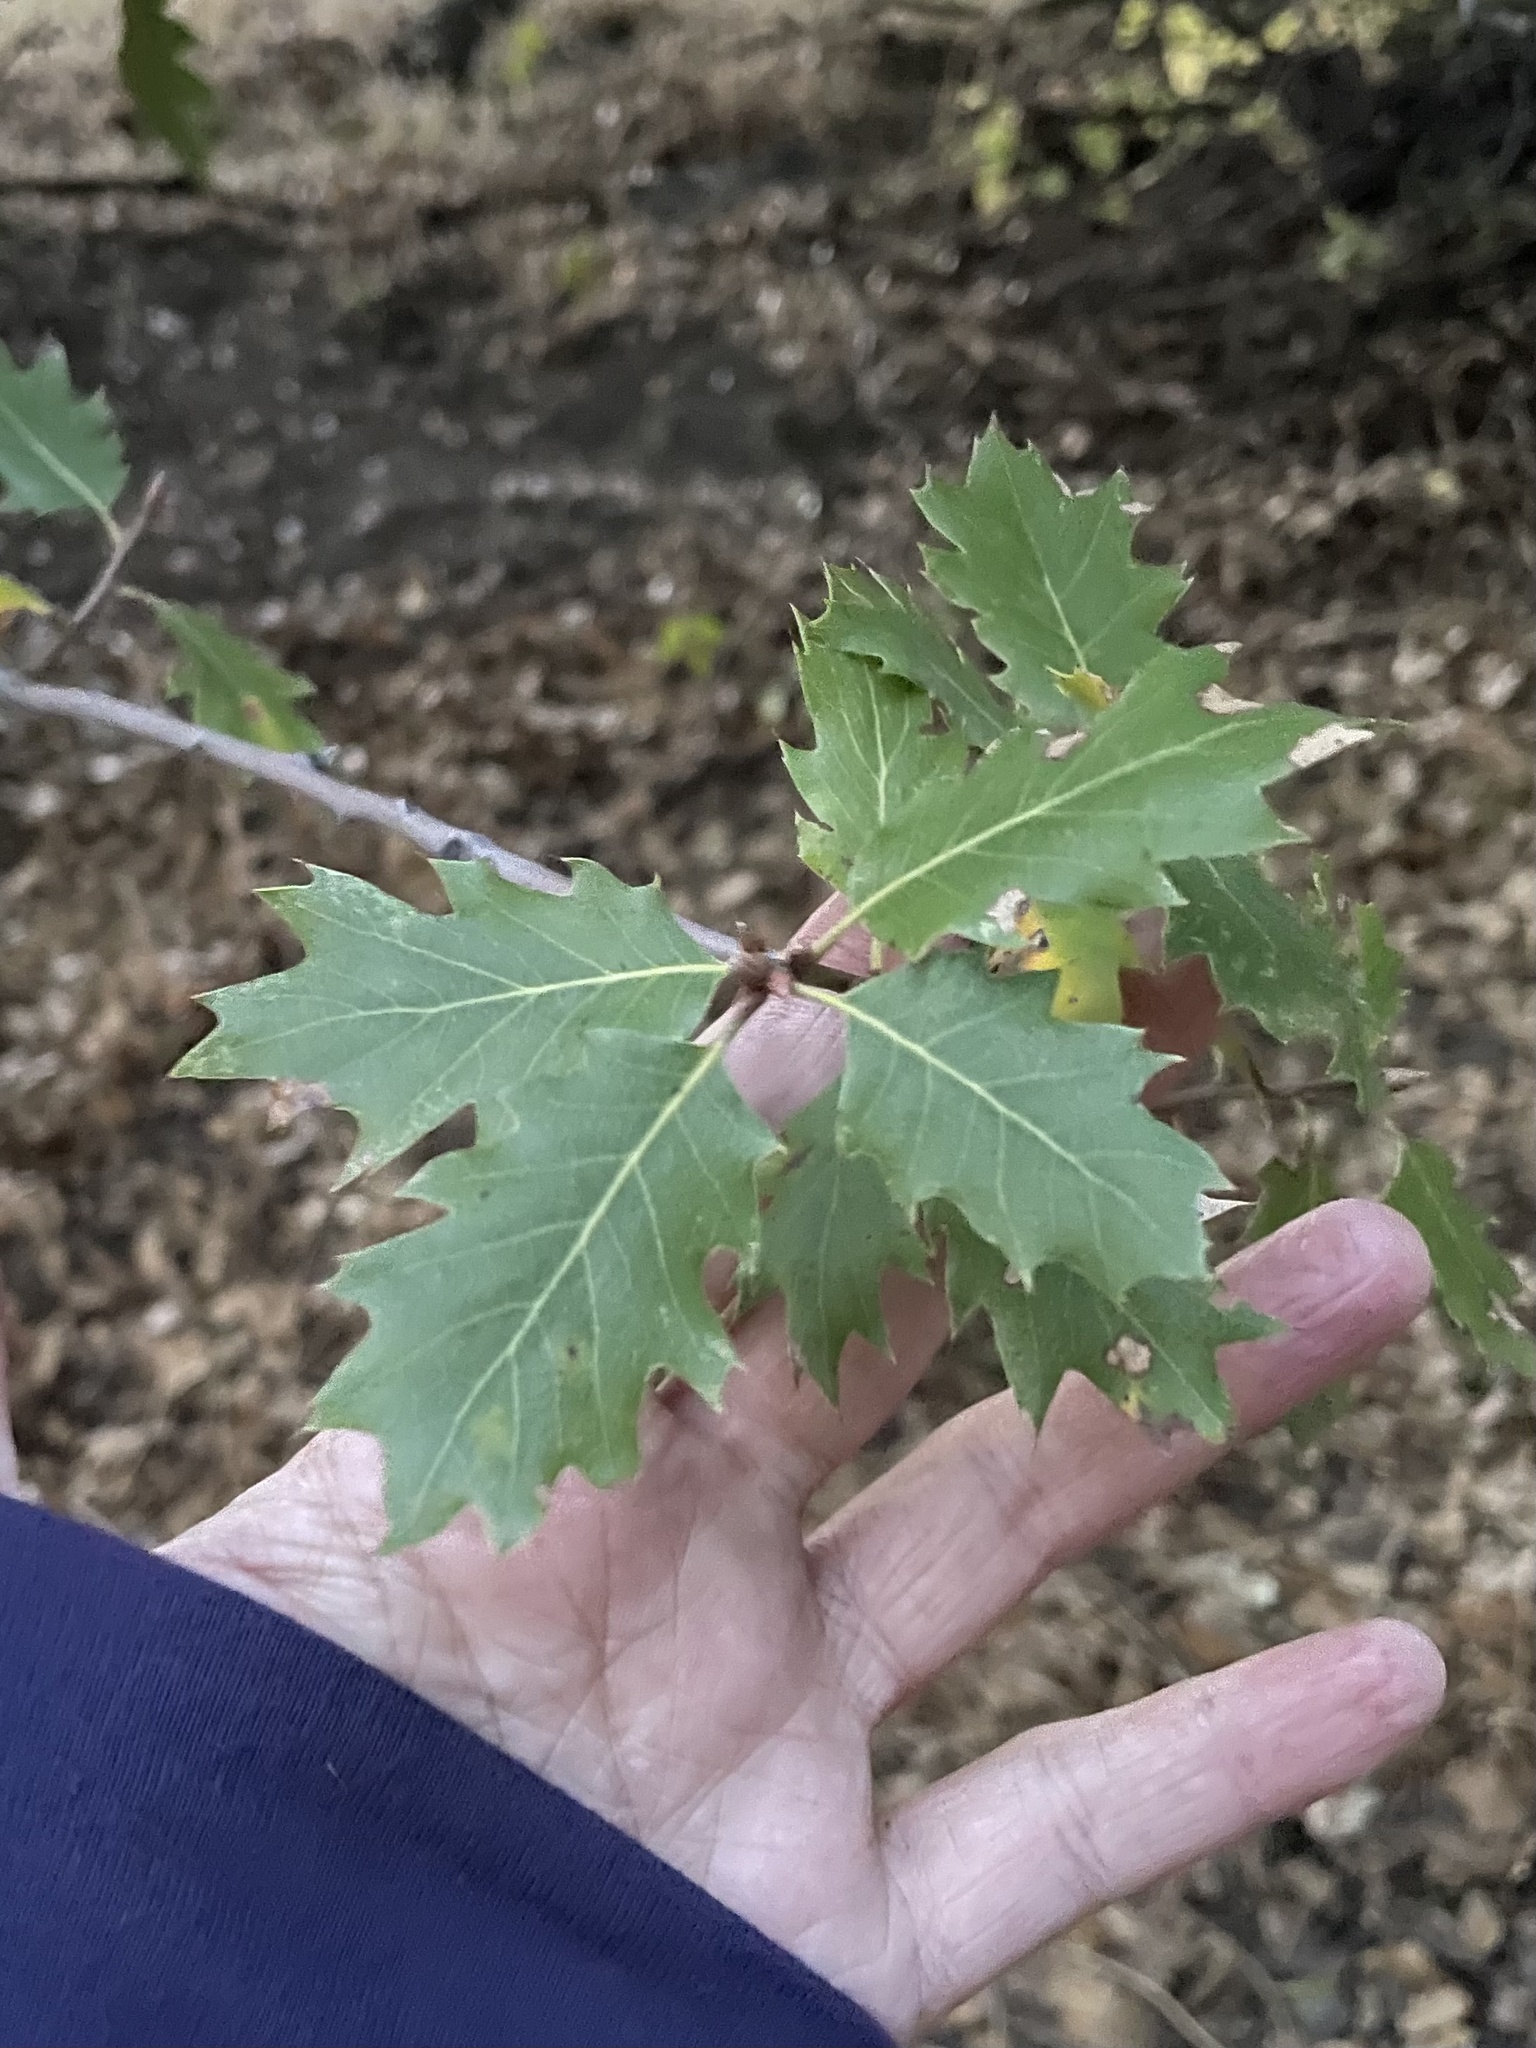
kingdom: Plantae
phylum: Tracheophyta
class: Magnoliopsida
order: Fagales
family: Fagaceae
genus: Quercus
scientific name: Quercus morehus
